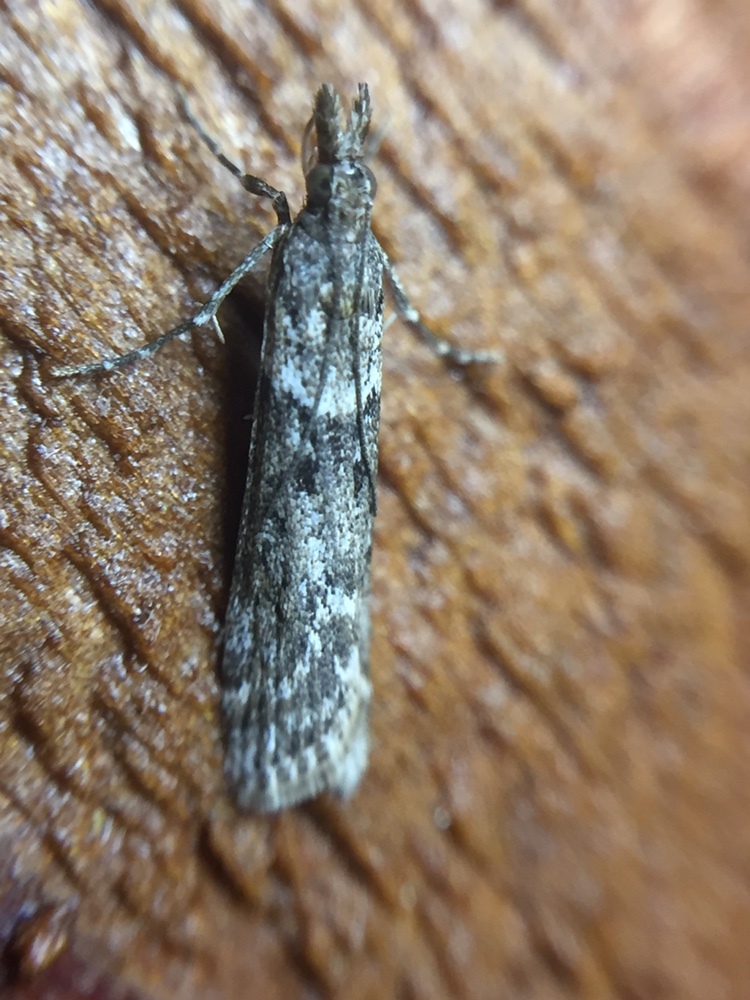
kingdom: Animalia
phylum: Arthropoda
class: Insecta
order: Lepidoptera
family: Crambidae
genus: Eudonia
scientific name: Eudonia leptalea
